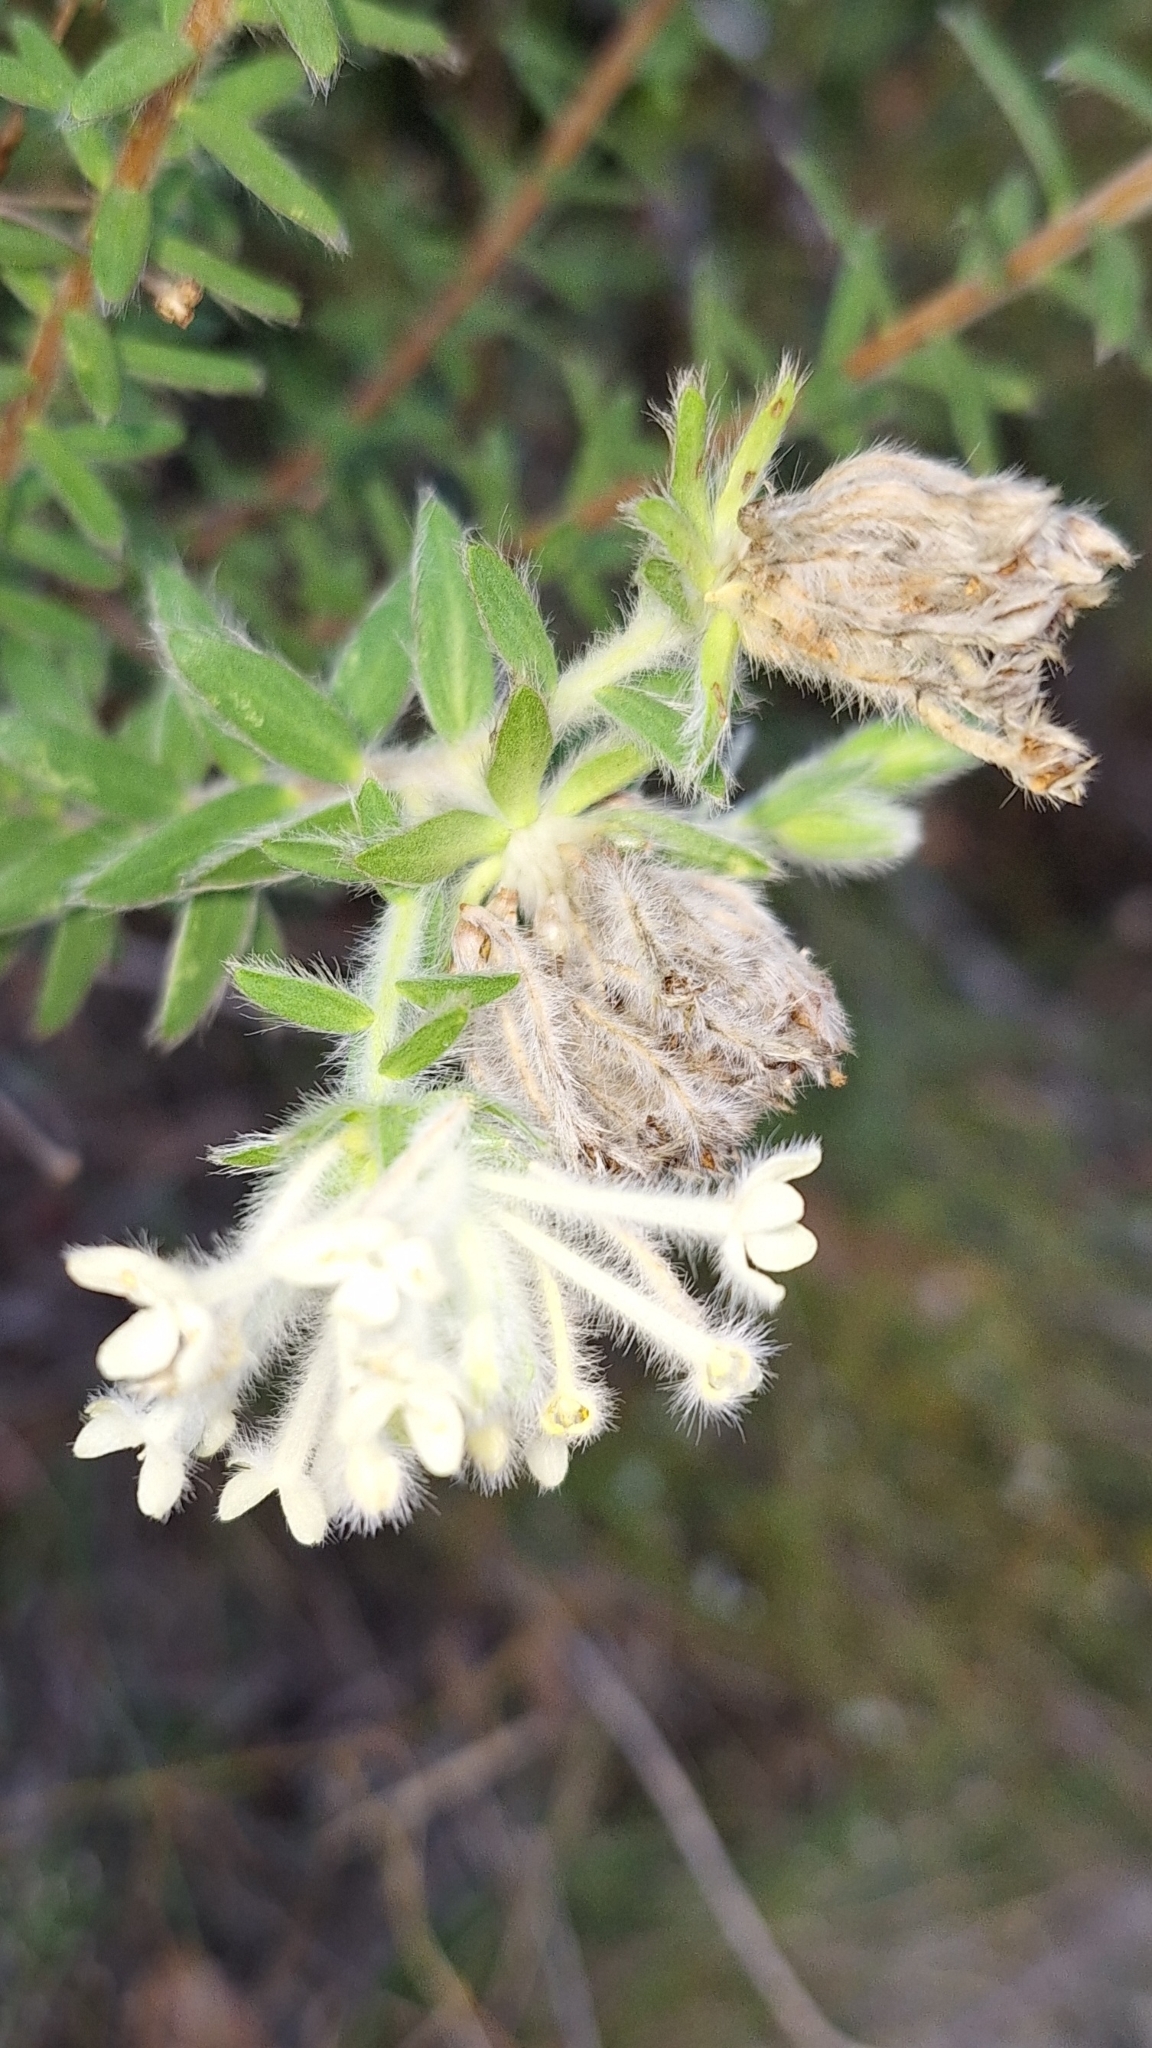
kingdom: Plantae
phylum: Tracheophyta
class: Magnoliopsida
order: Malvales
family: Thymelaeaceae
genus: Pimelea
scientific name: Pimelea octophylla
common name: Woolly riceflower
